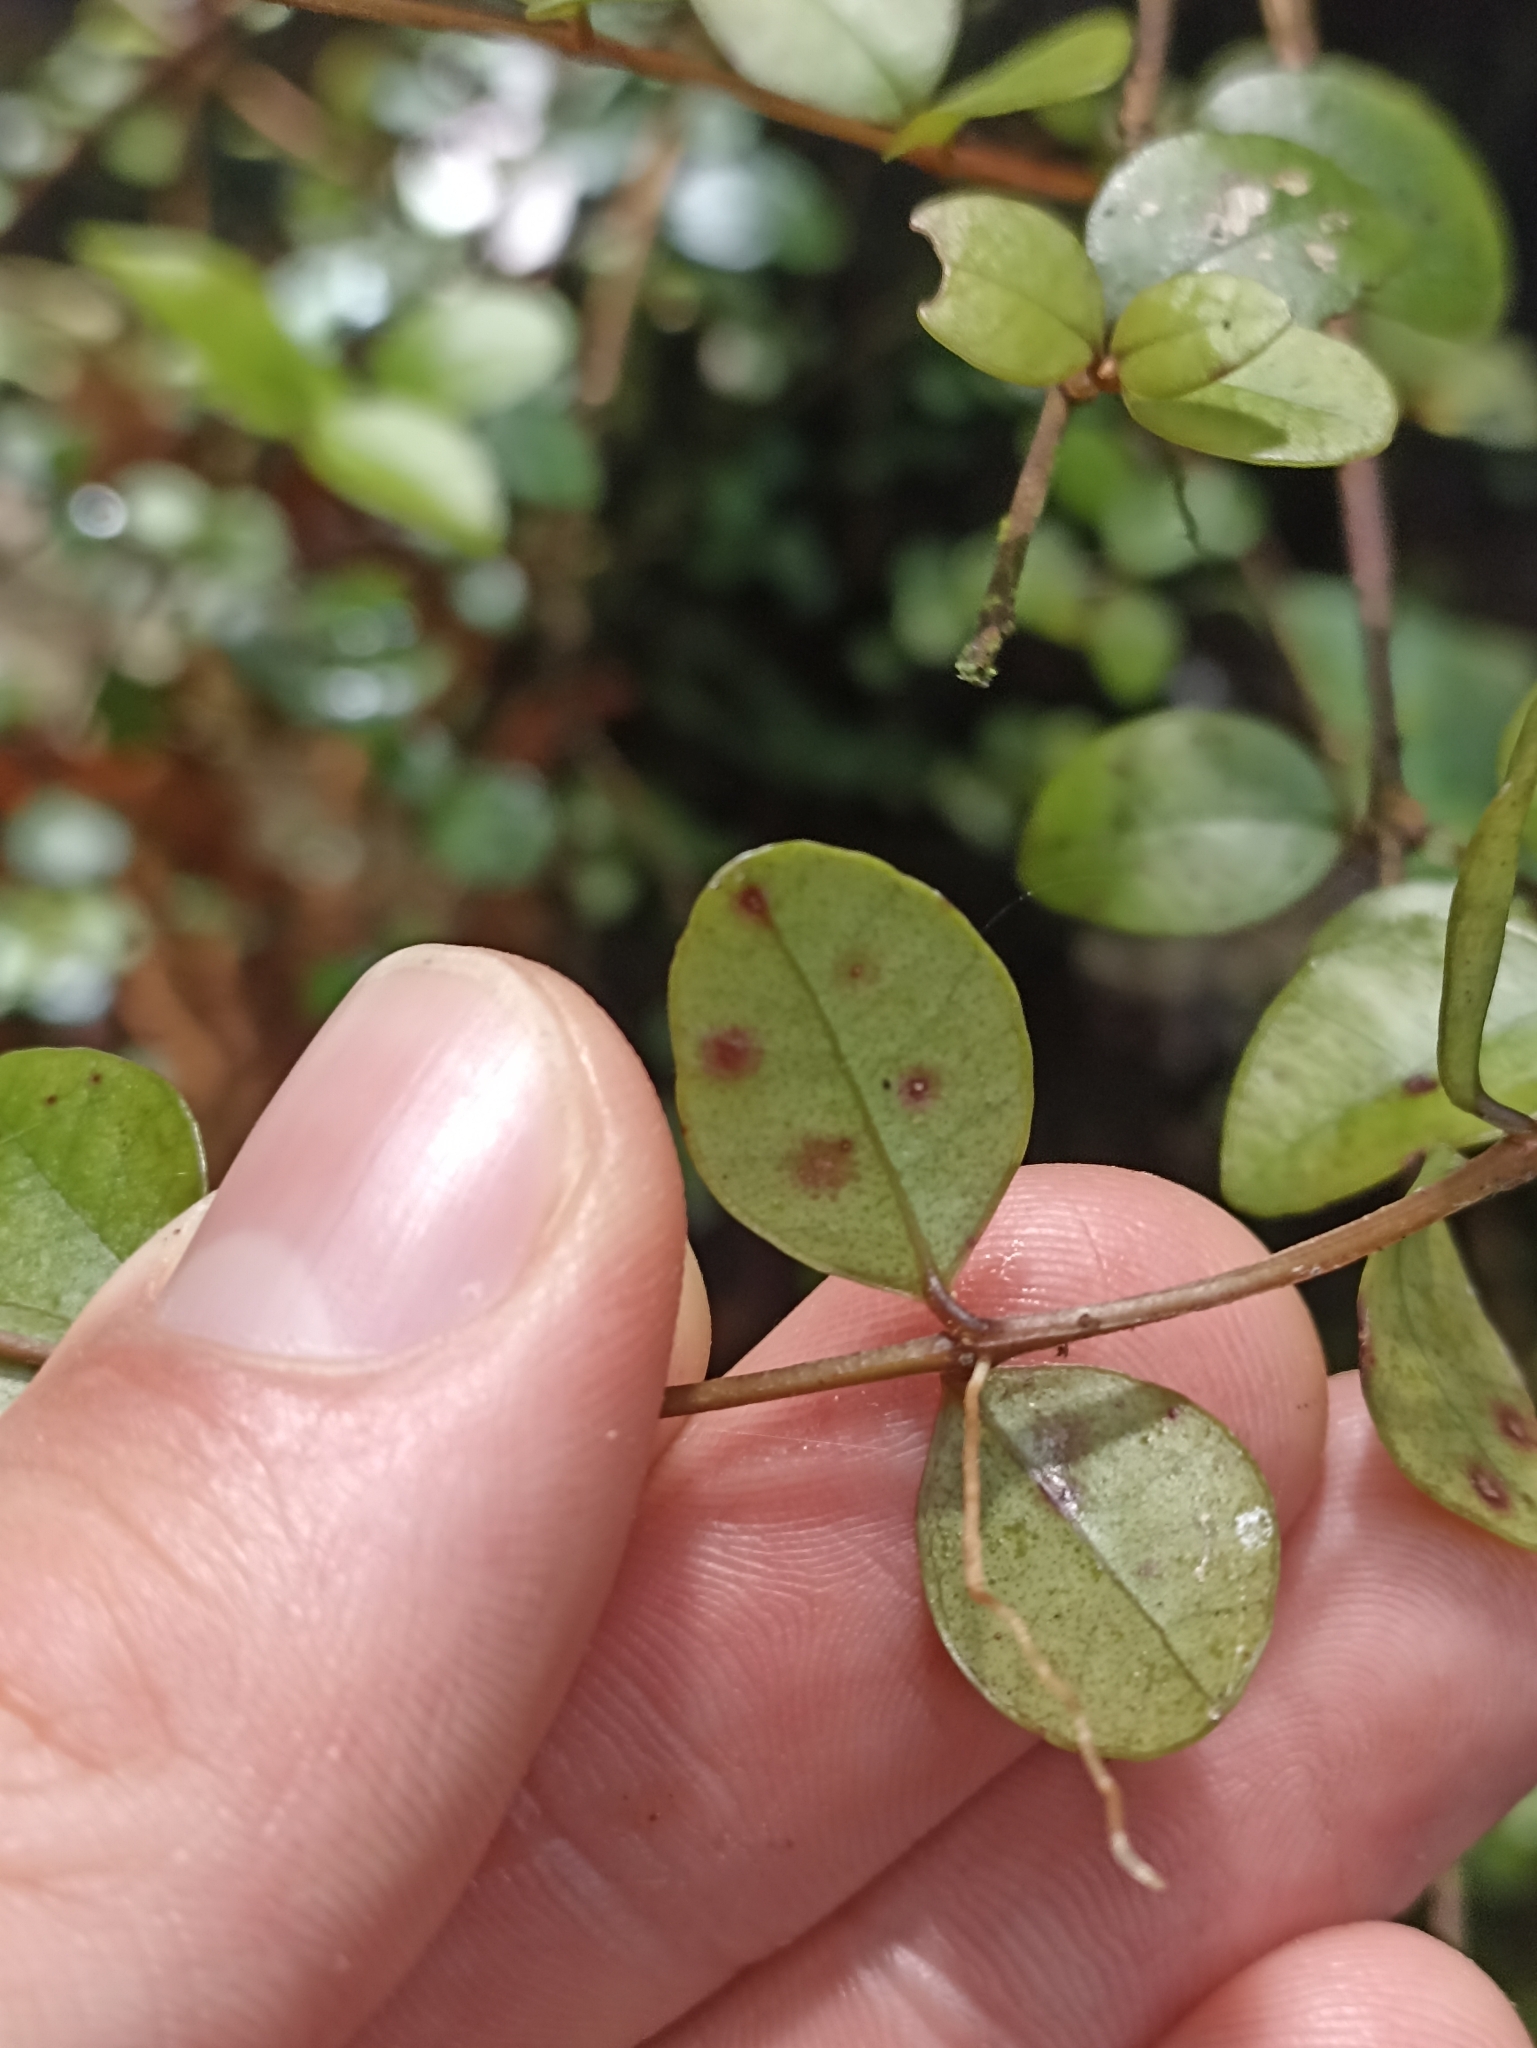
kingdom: Plantae
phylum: Tracheophyta
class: Magnoliopsida
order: Myrtales
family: Myrtaceae
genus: Metrosideros
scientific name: Metrosideros fulgens
